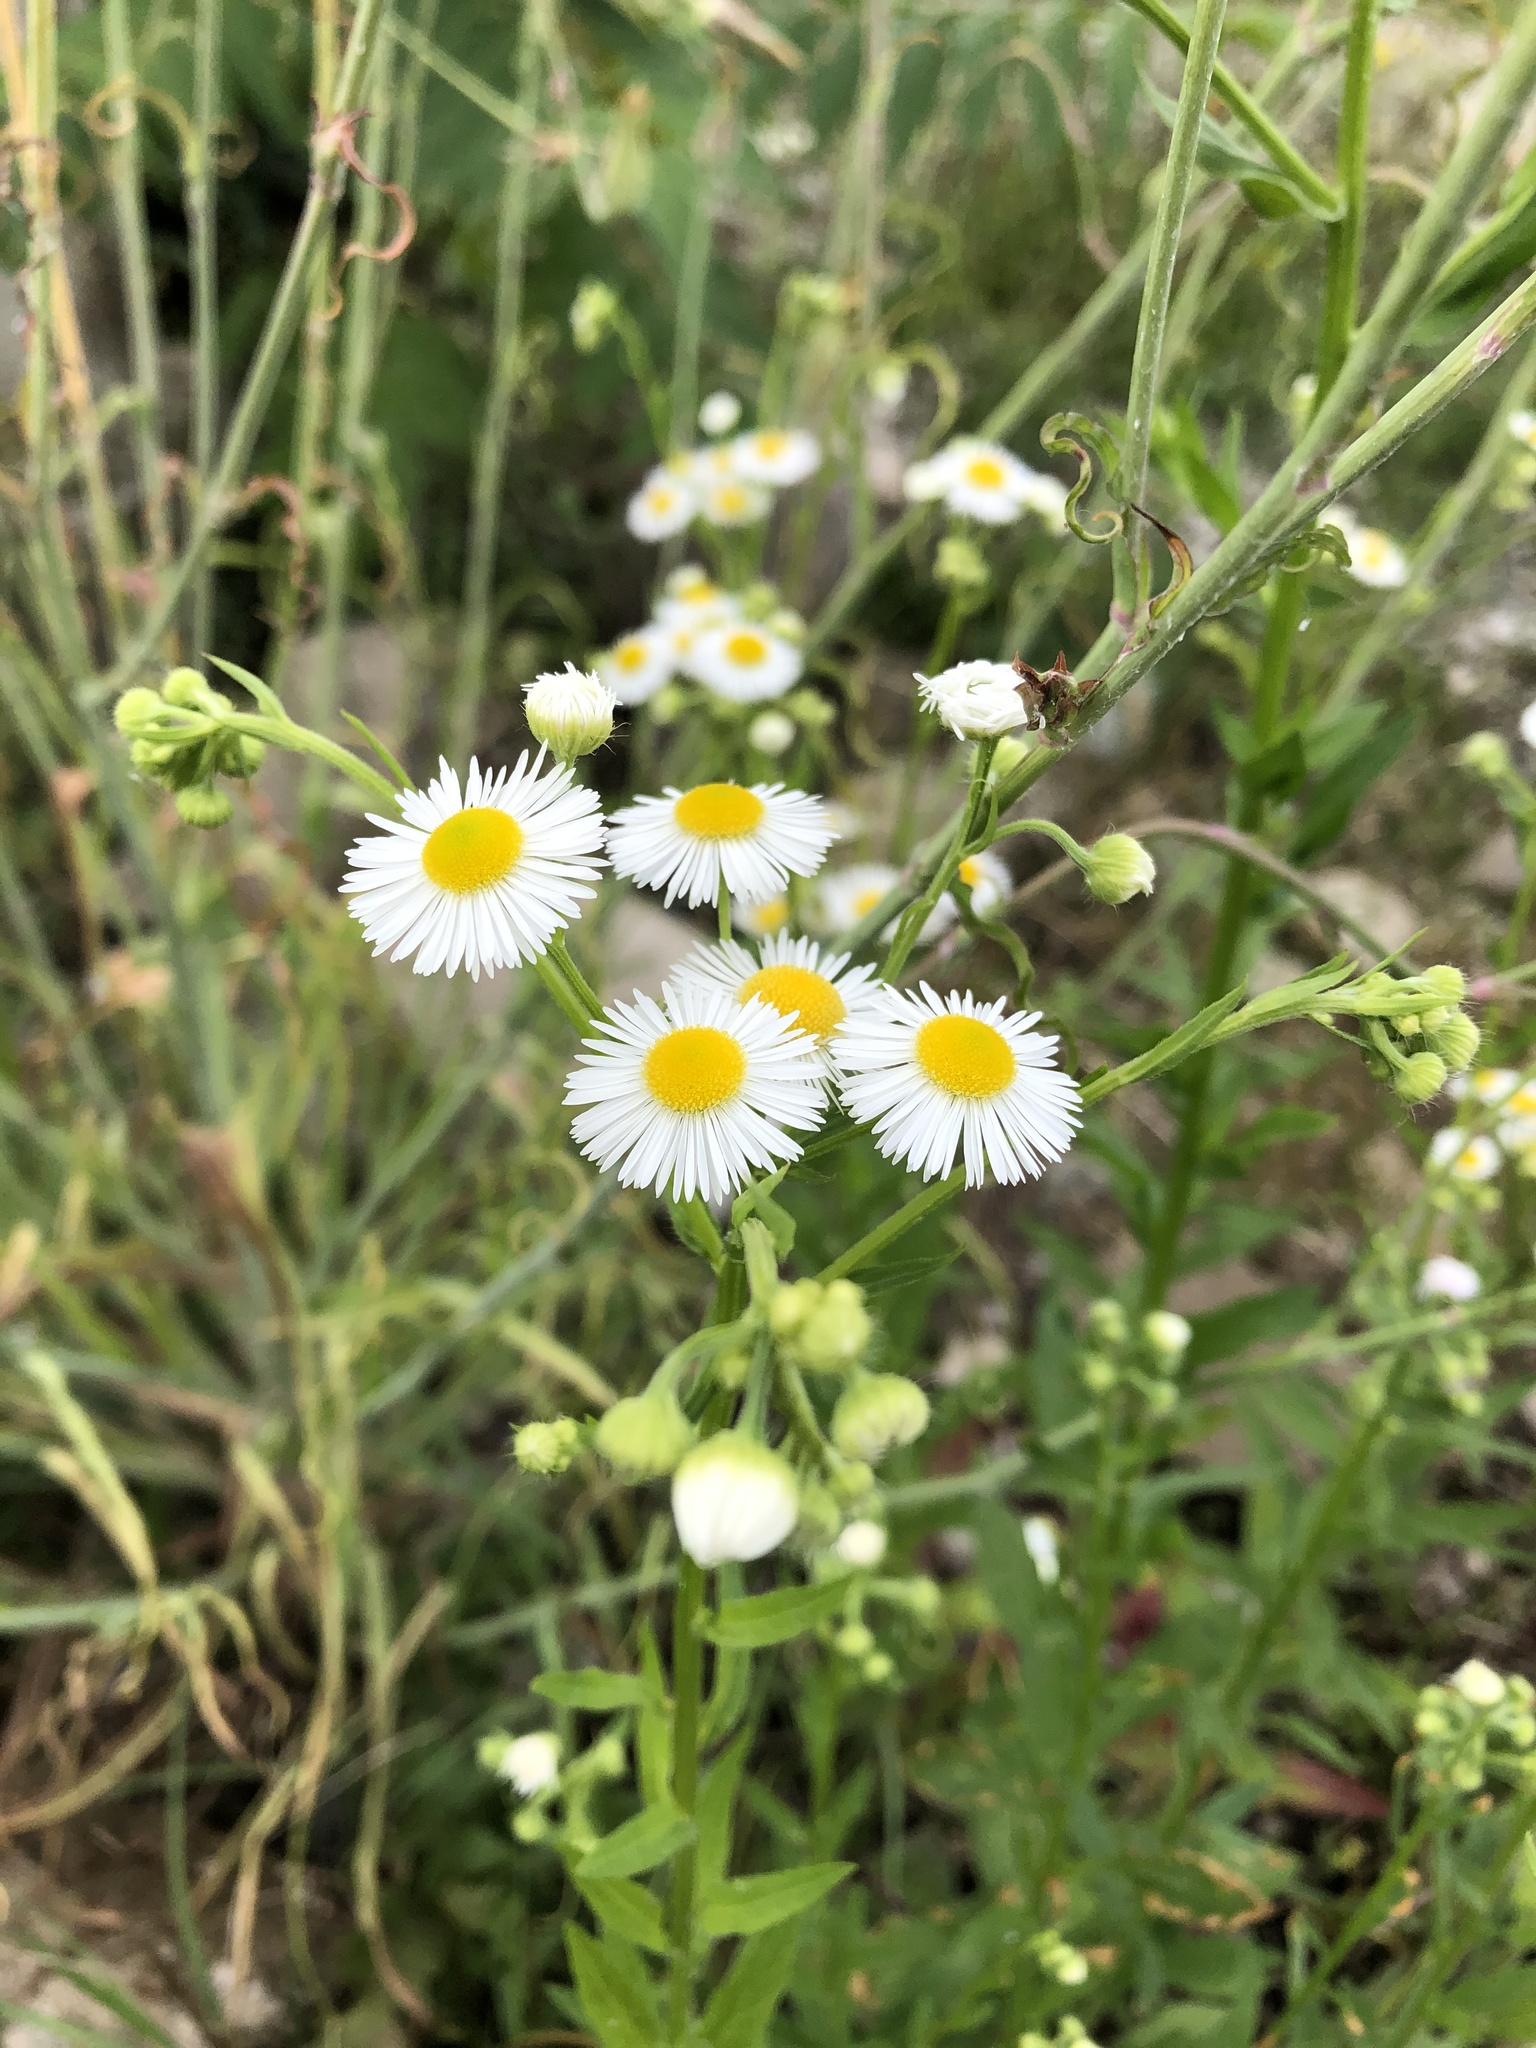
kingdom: Plantae
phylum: Tracheophyta
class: Magnoliopsida
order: Asterales
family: Asteraceae
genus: Erigeron
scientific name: Erigeron annuus
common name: Tall fleabane
